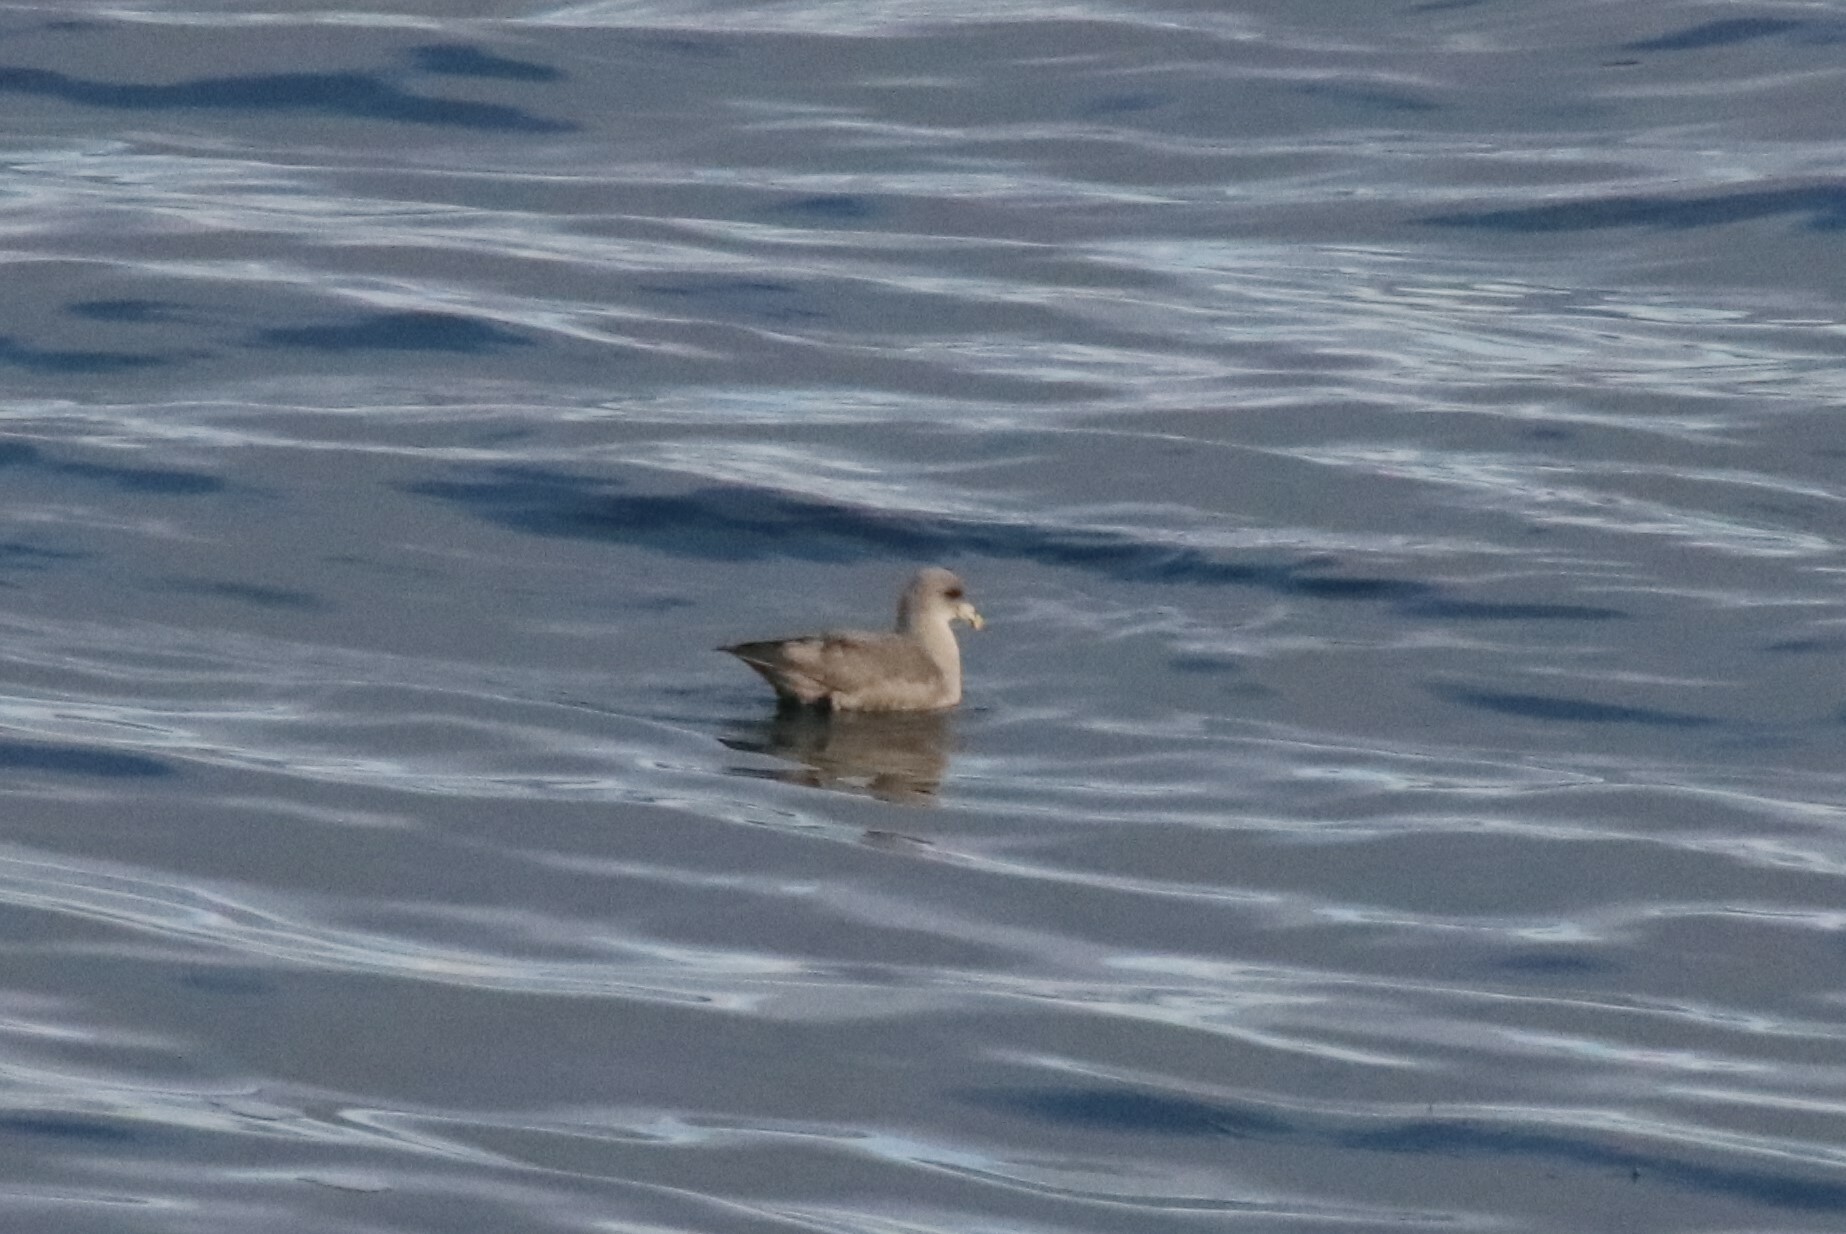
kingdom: Animalia
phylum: Chordata
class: Aves
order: Procellariiformes
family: Procellariidae
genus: Fulmarus
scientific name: Fulmarus glacialis
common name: Northern fulmar
